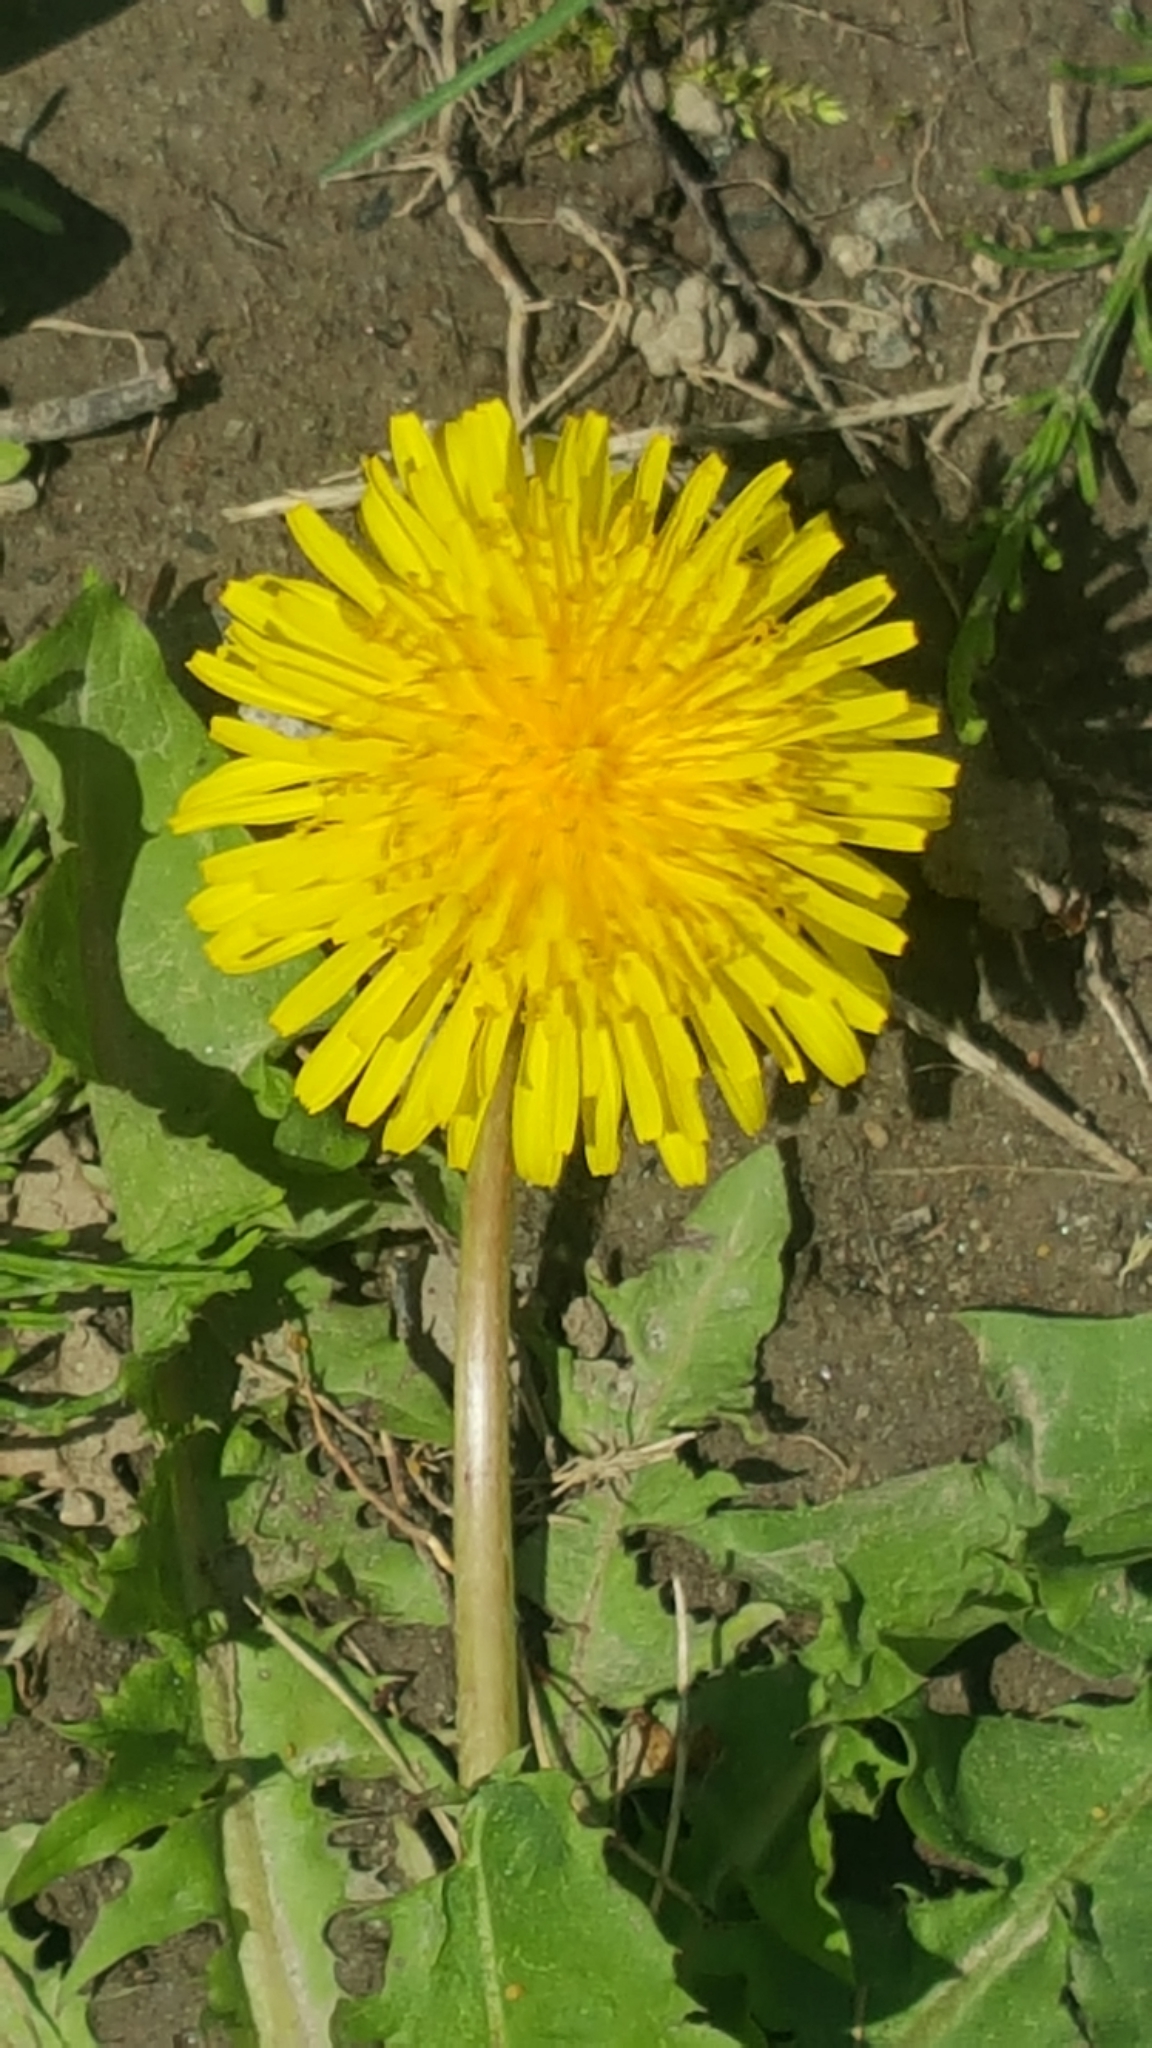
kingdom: Plantae
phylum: Tracheophyta
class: Magnoliopsida
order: Asterales
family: Asteraceae
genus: Taraxacum
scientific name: Taraxacum officinale
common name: Common dandelion
